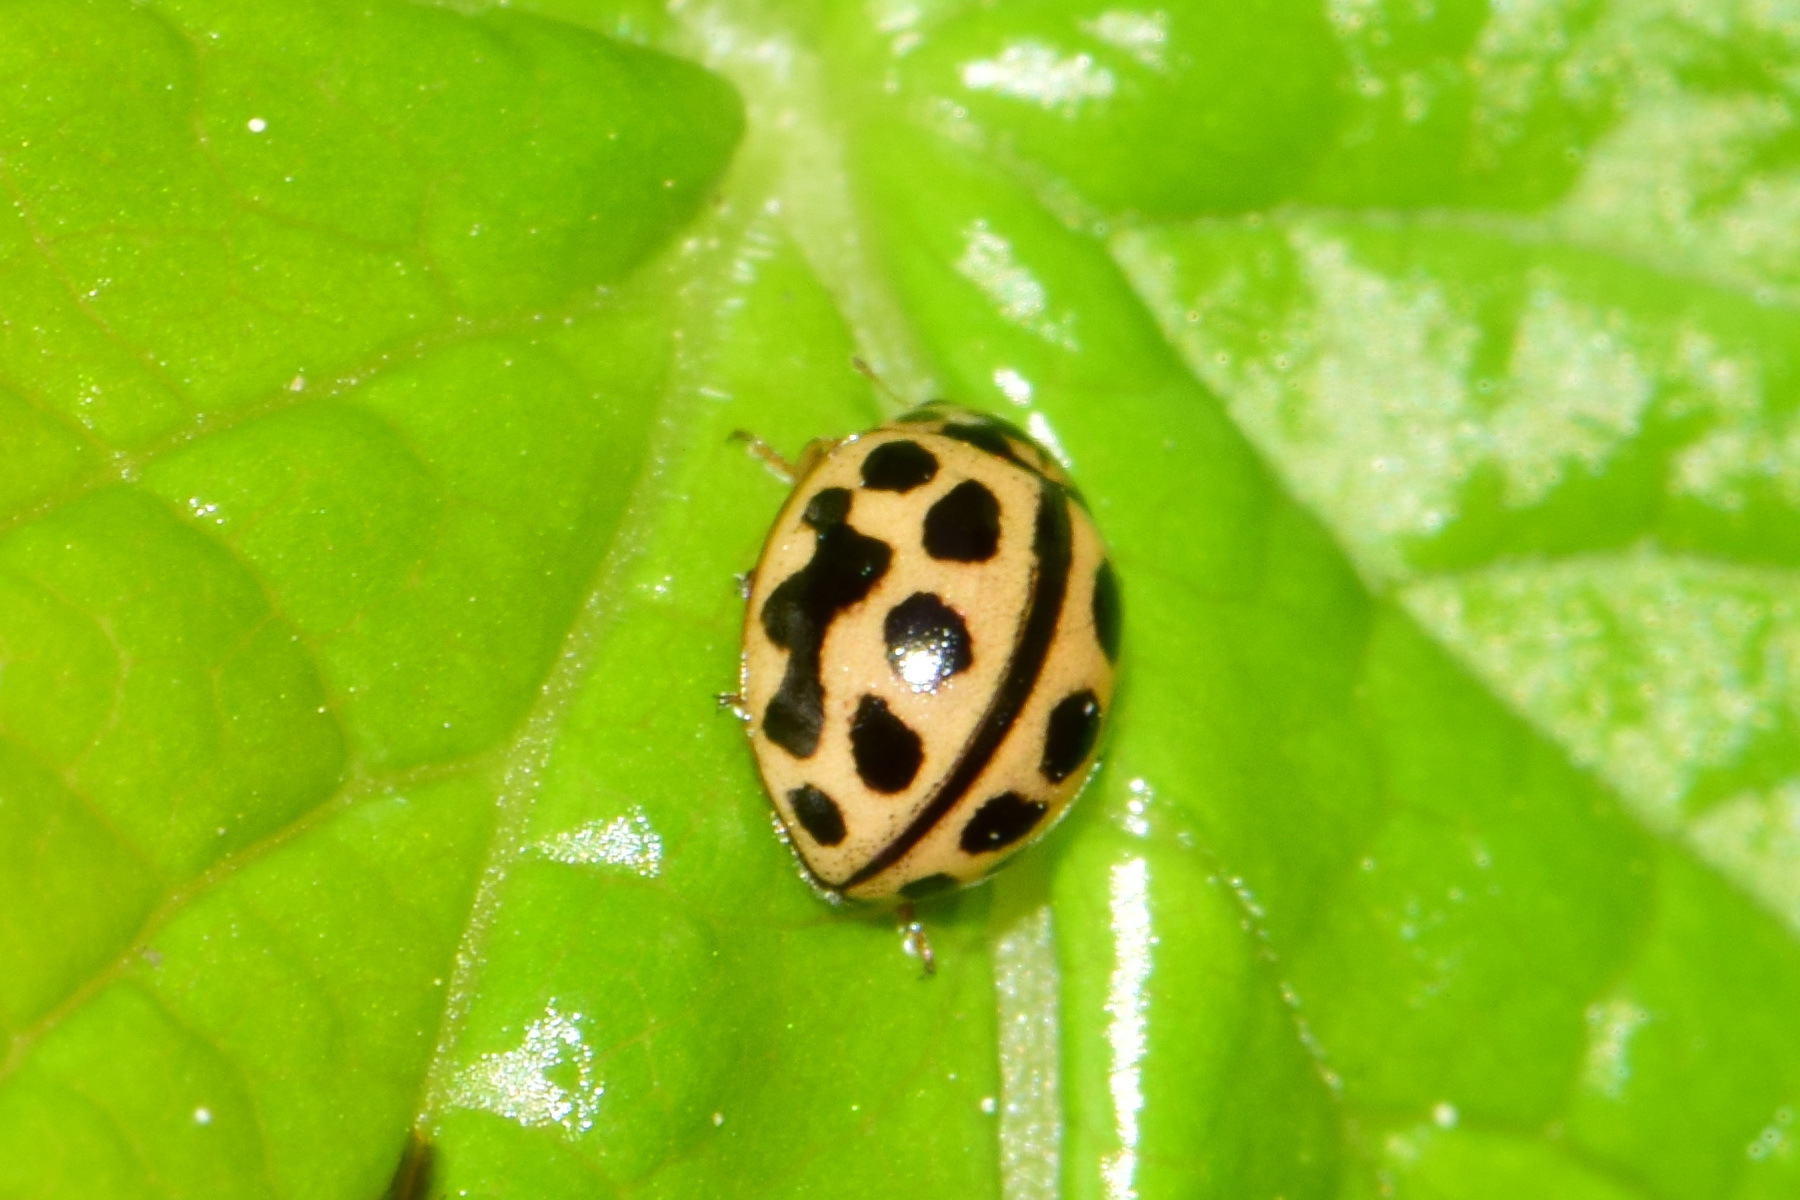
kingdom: Animalia
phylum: Arthropoda
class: Insecta
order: Coleoptera
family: Coccinellidae
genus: Tytthaspis
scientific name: Tytthaspis sedecimpunctata
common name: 16-spot ladybird
